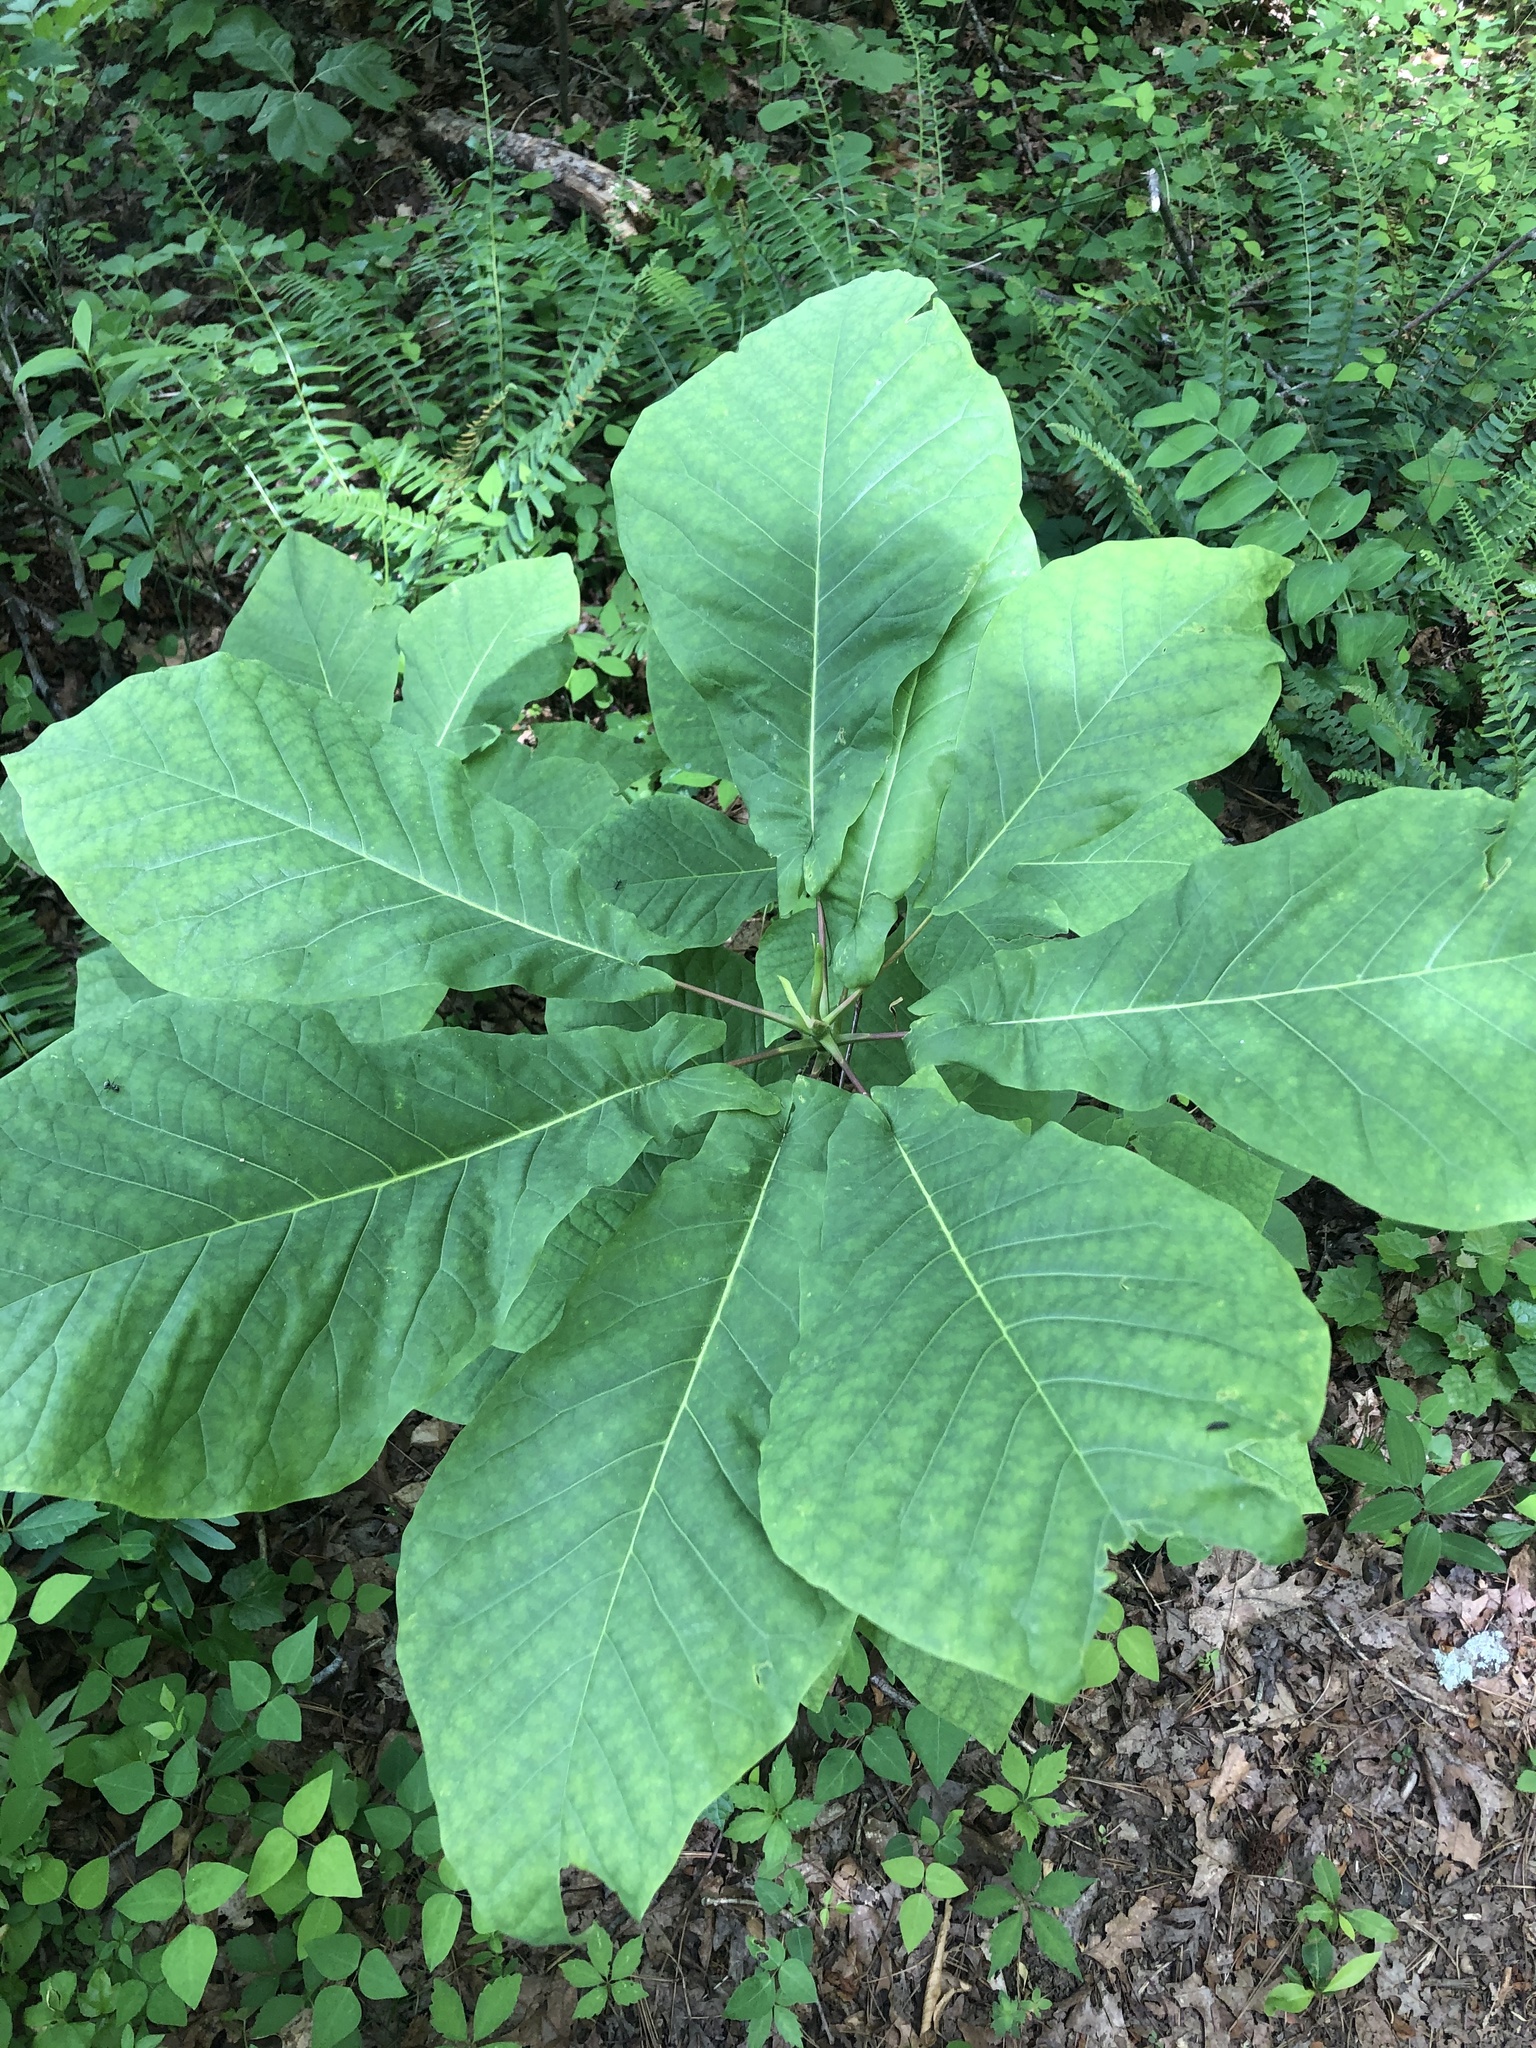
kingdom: Plantae
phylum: Tracheophyta
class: Magnoliopsida
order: Magnoliales
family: Magnoliaceae
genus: Magnolia
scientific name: Magnolia fraseri
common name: Fraser's magnolia
